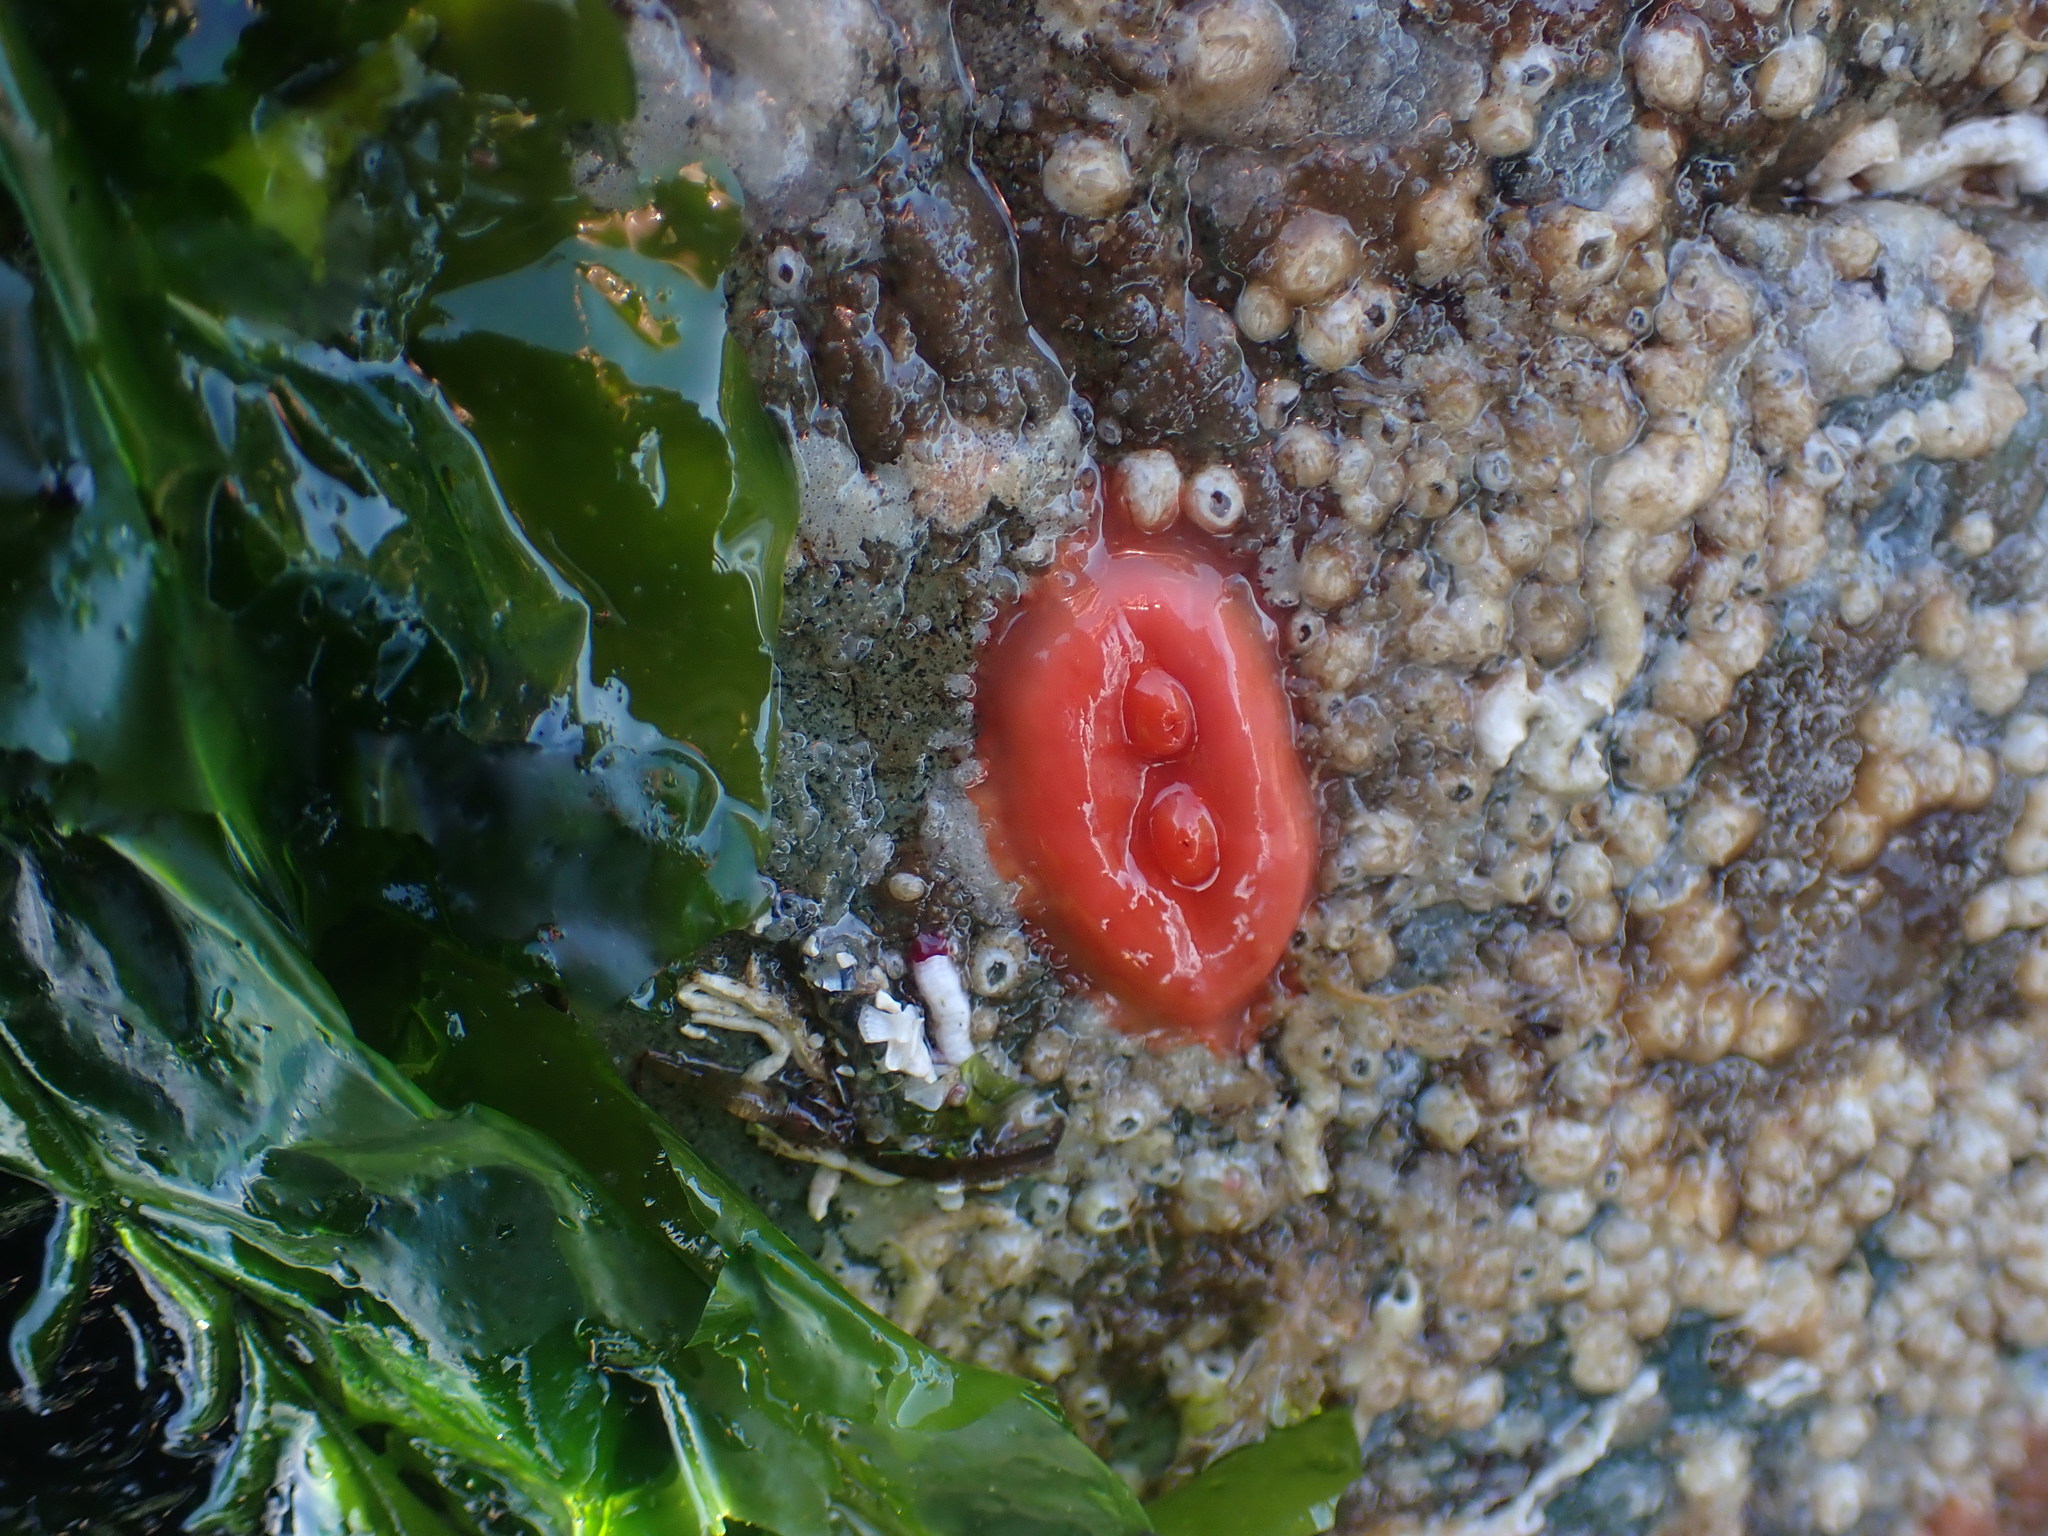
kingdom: Animalia
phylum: Chordata
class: Ascidiacea
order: Stolidobranchia
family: Styelidae
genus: Cnemidocarpa
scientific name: Cnemidocarpa finmarkiensis
